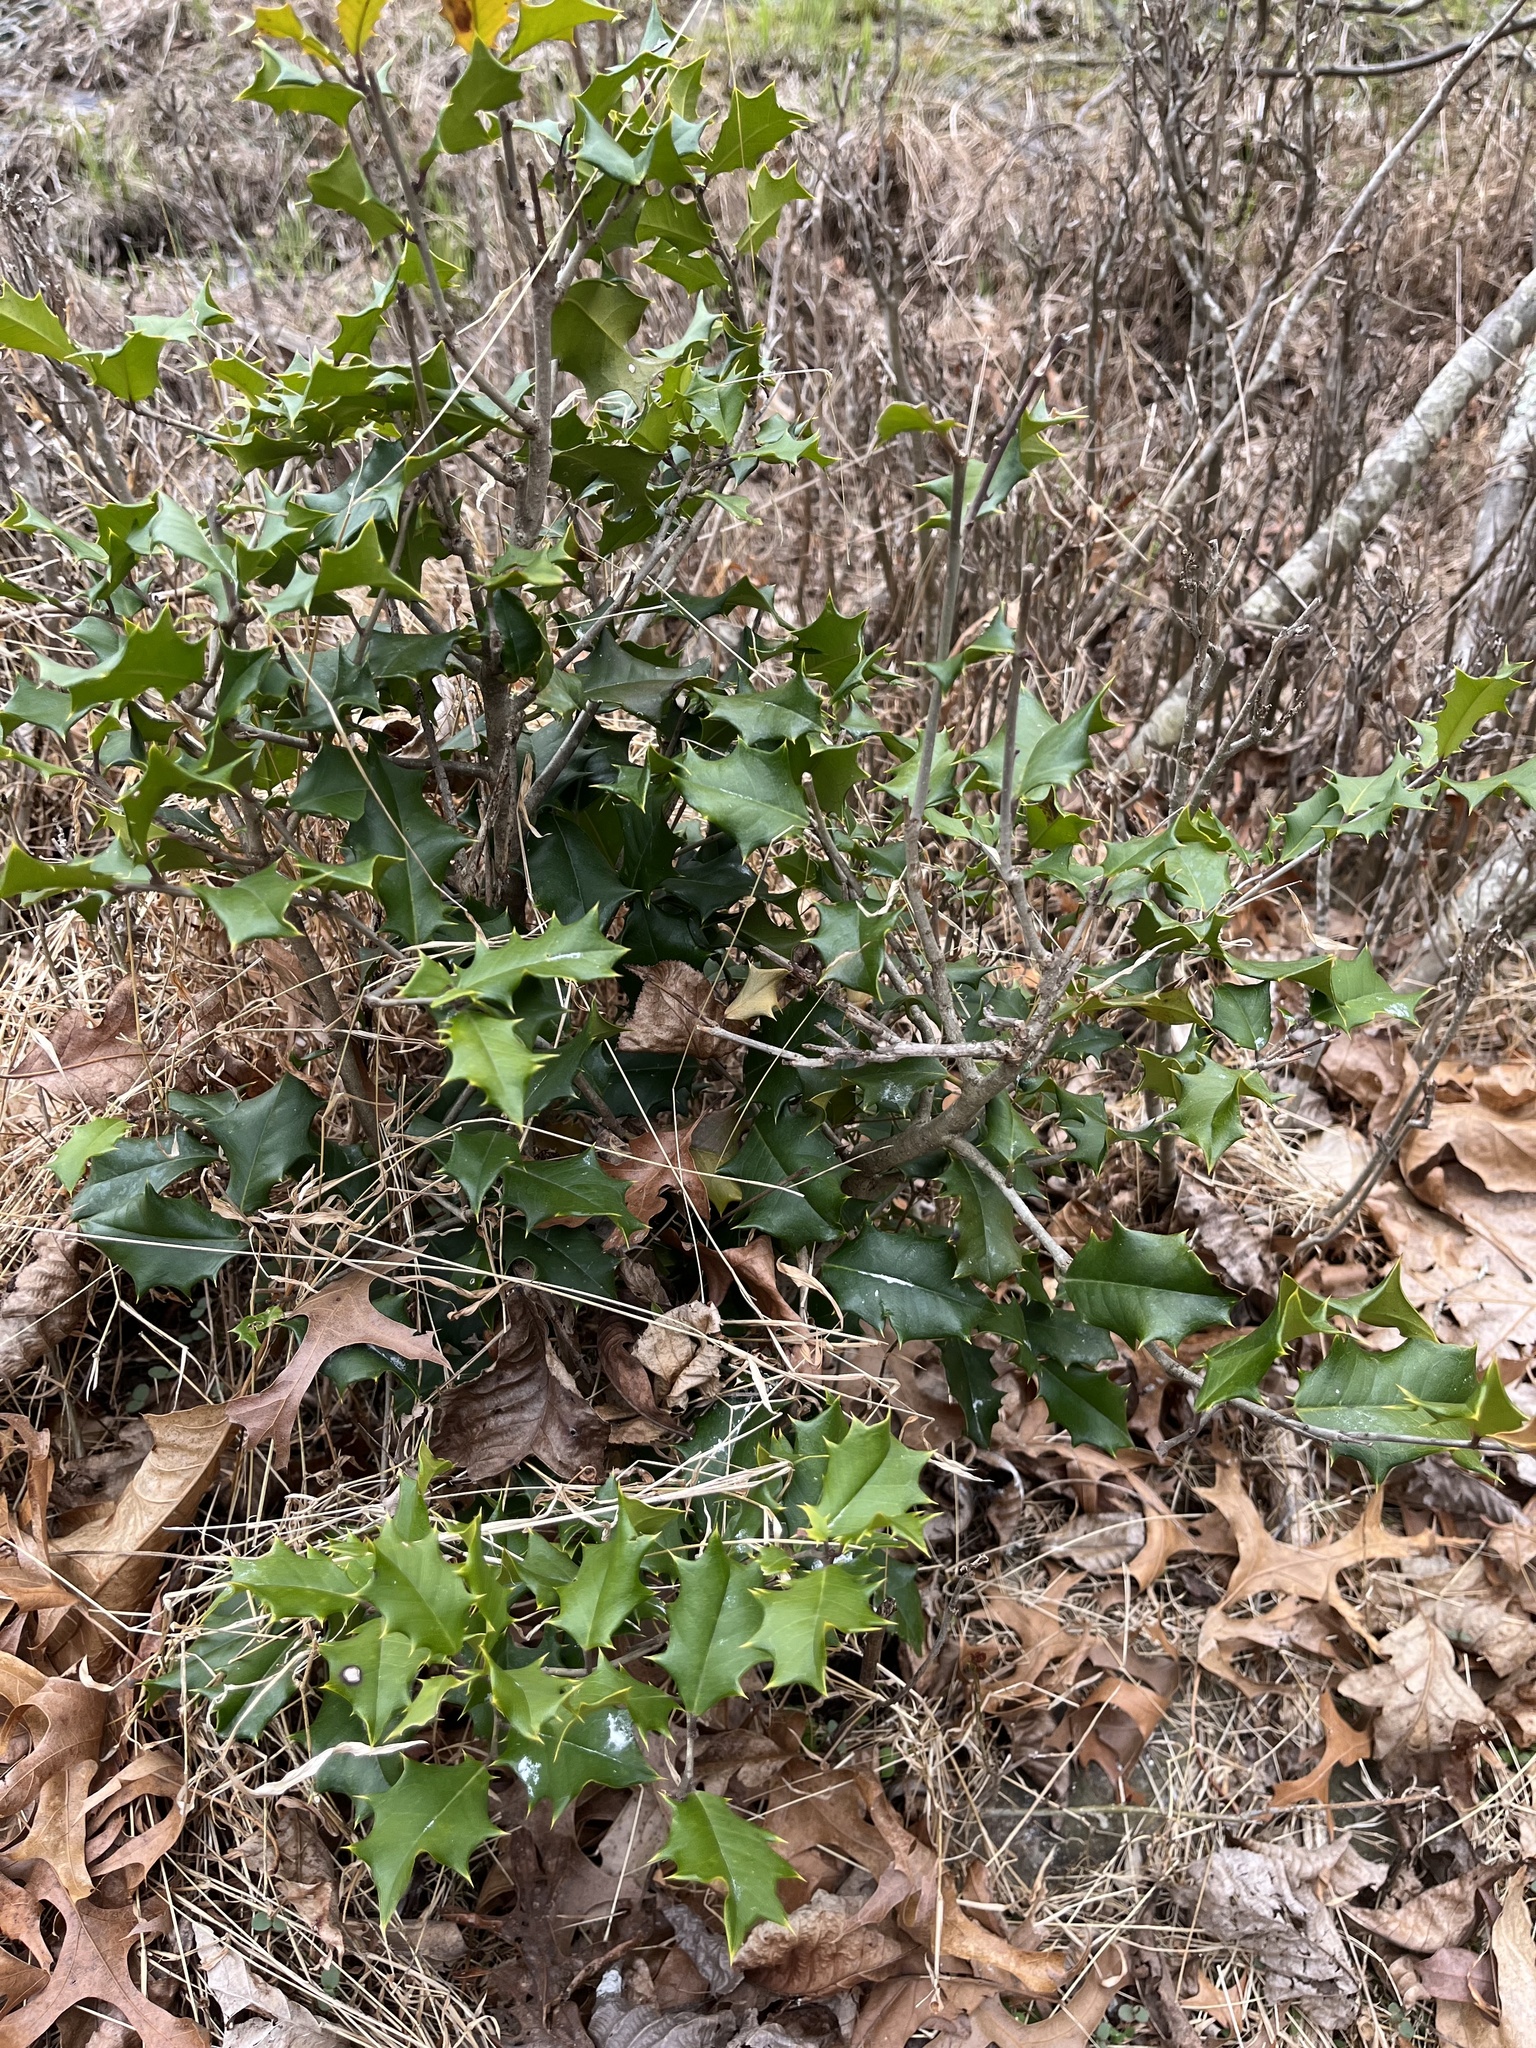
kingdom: Plantae
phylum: Tracheophyta
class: Magnoliopsida
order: Aquifoliales
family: Aquifoliaceae
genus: Ilex
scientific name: Ilex opaca
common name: American holly
